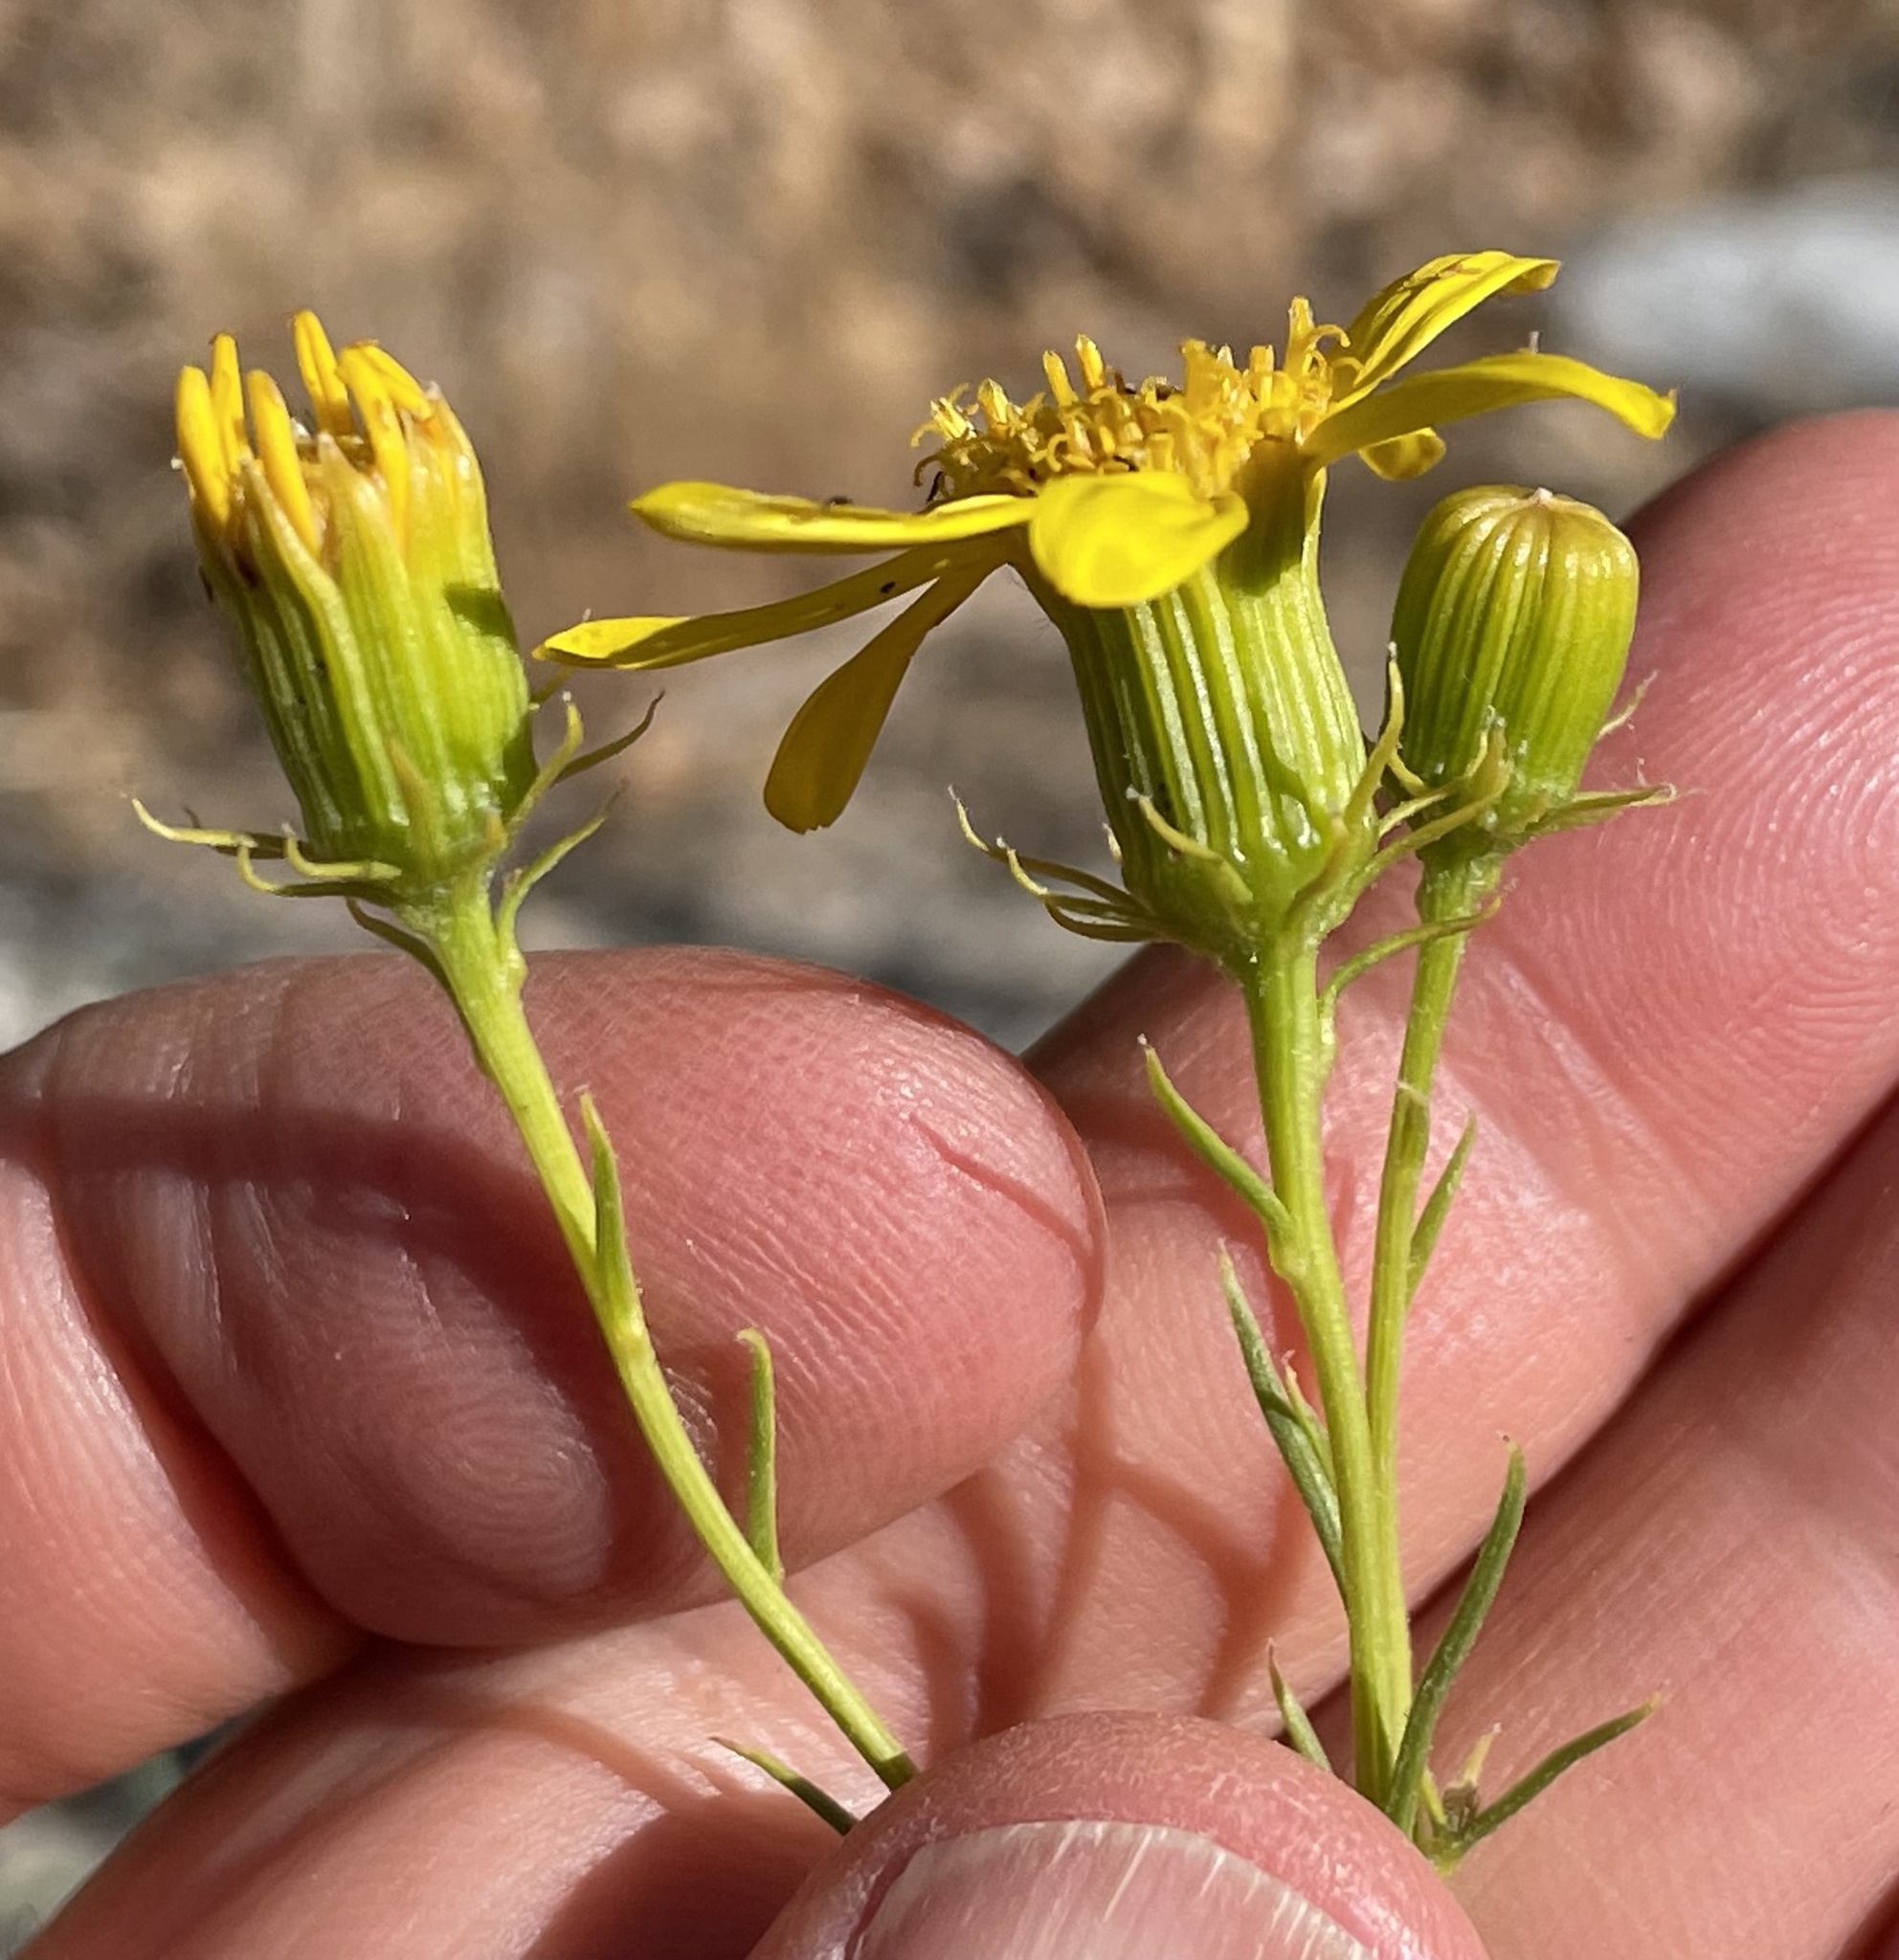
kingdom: Plantae
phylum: Tracheophyta
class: Magnoliopsida
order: Asterales
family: Asteraceae
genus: Senecio
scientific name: Senecio flaccidus
